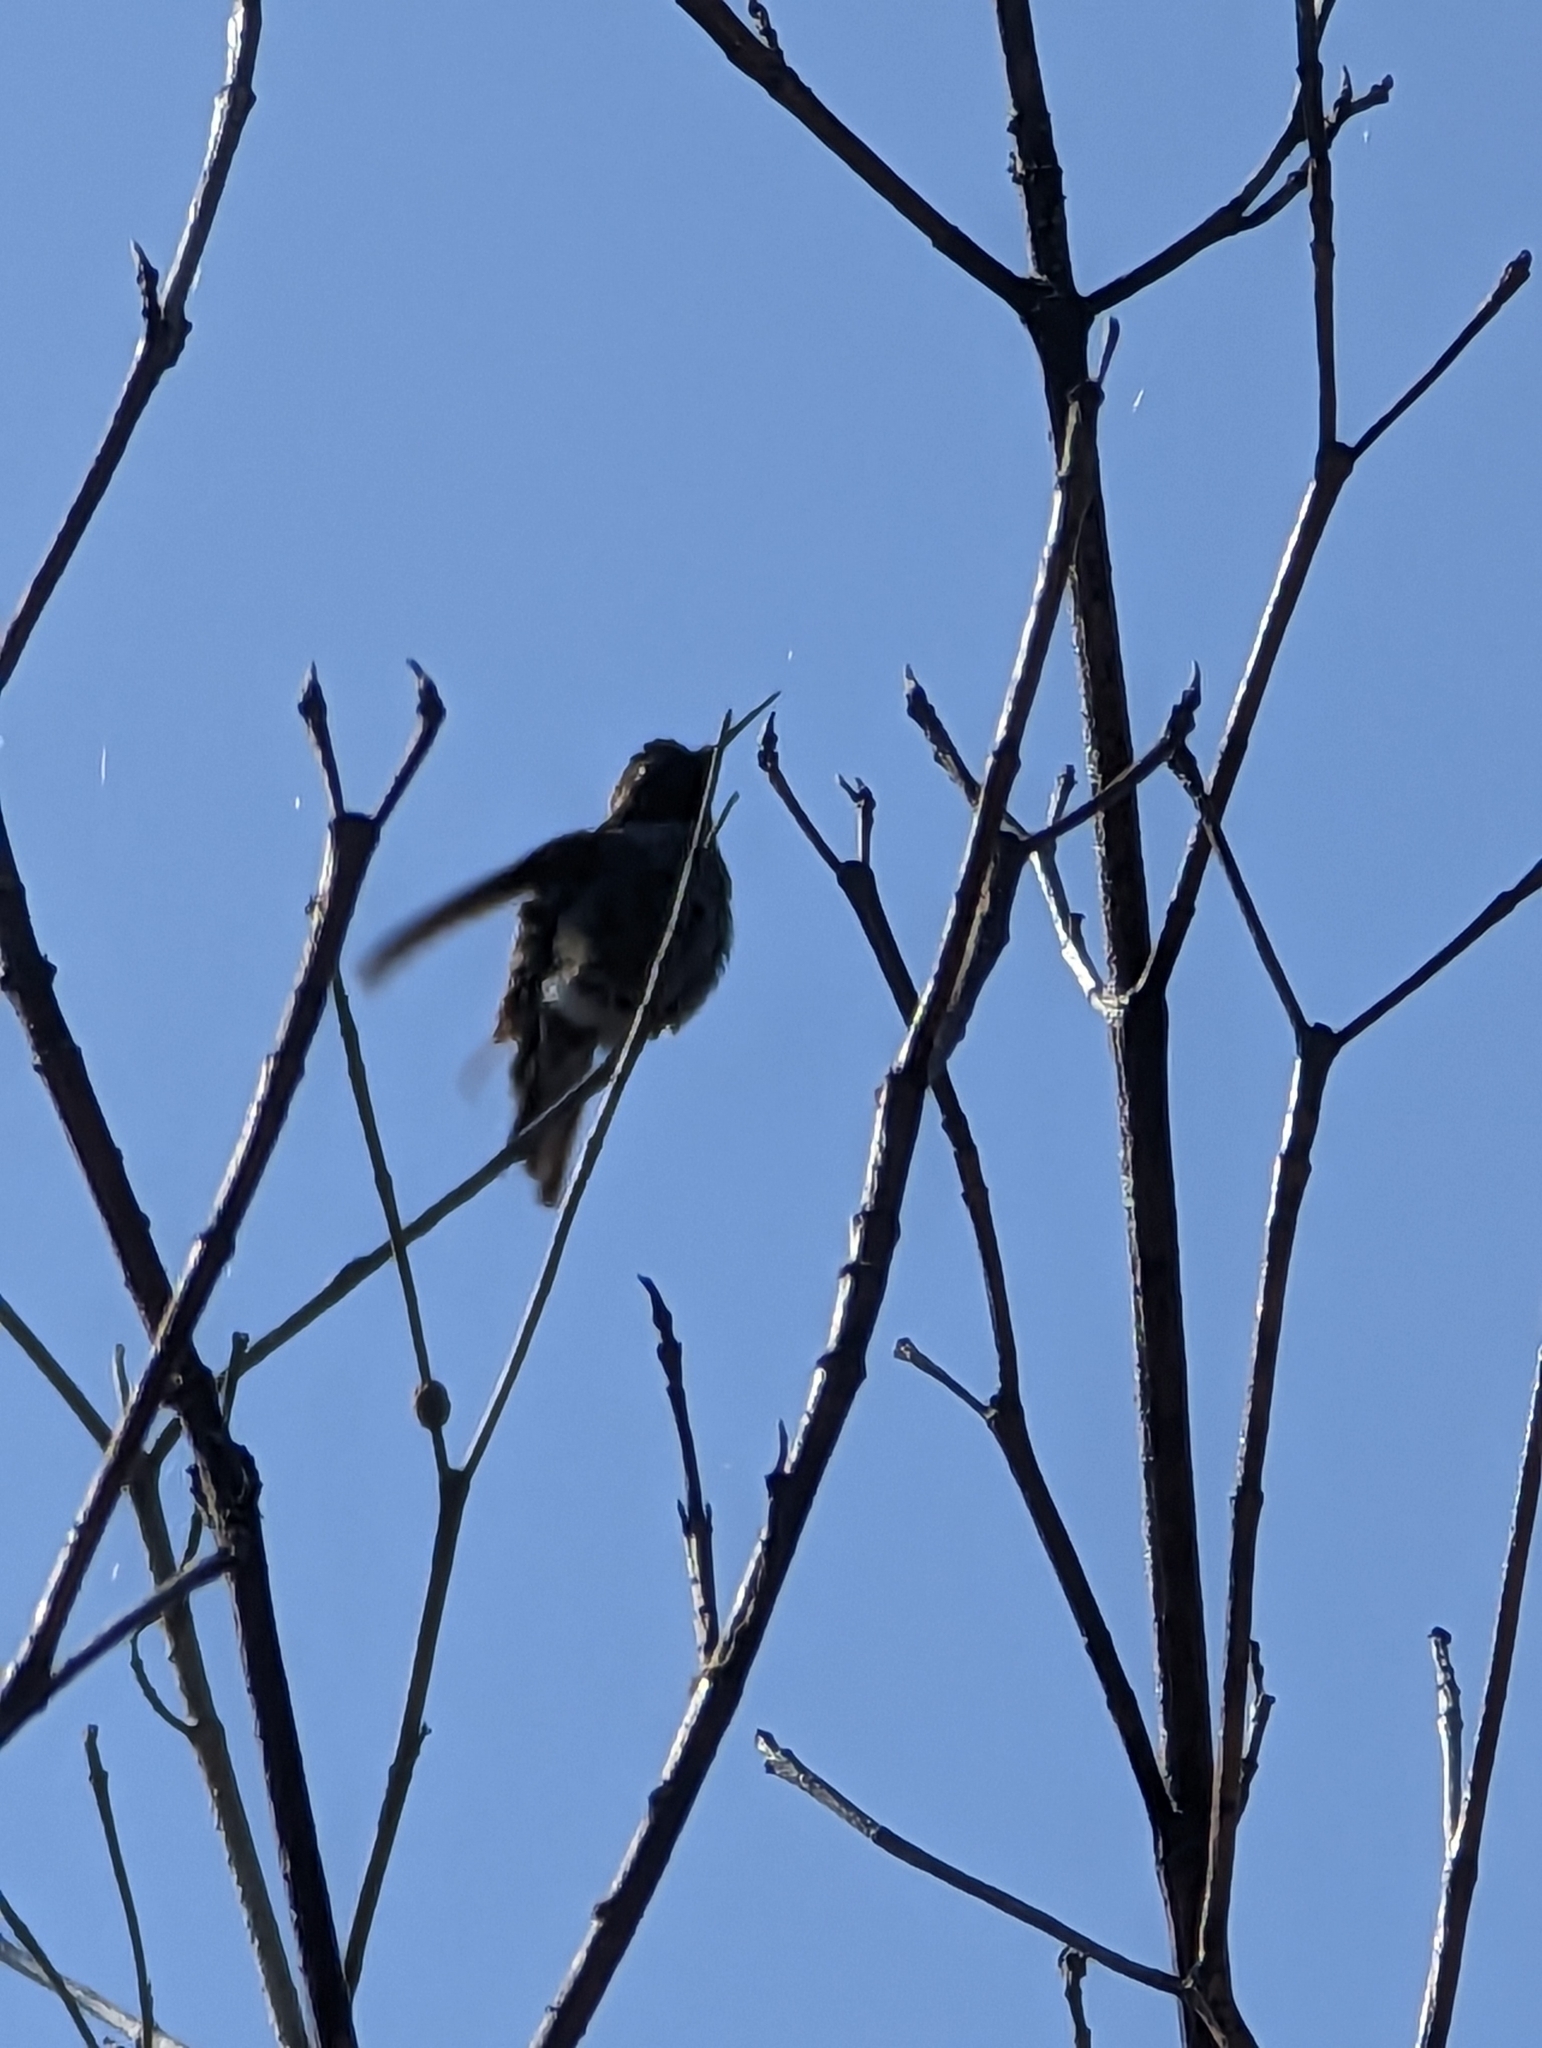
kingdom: Animalia
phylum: Chordata
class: Aves
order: Apodiformes
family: Trochilidae
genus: Calypte
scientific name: Calypte anna
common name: Anna's hummingbird
